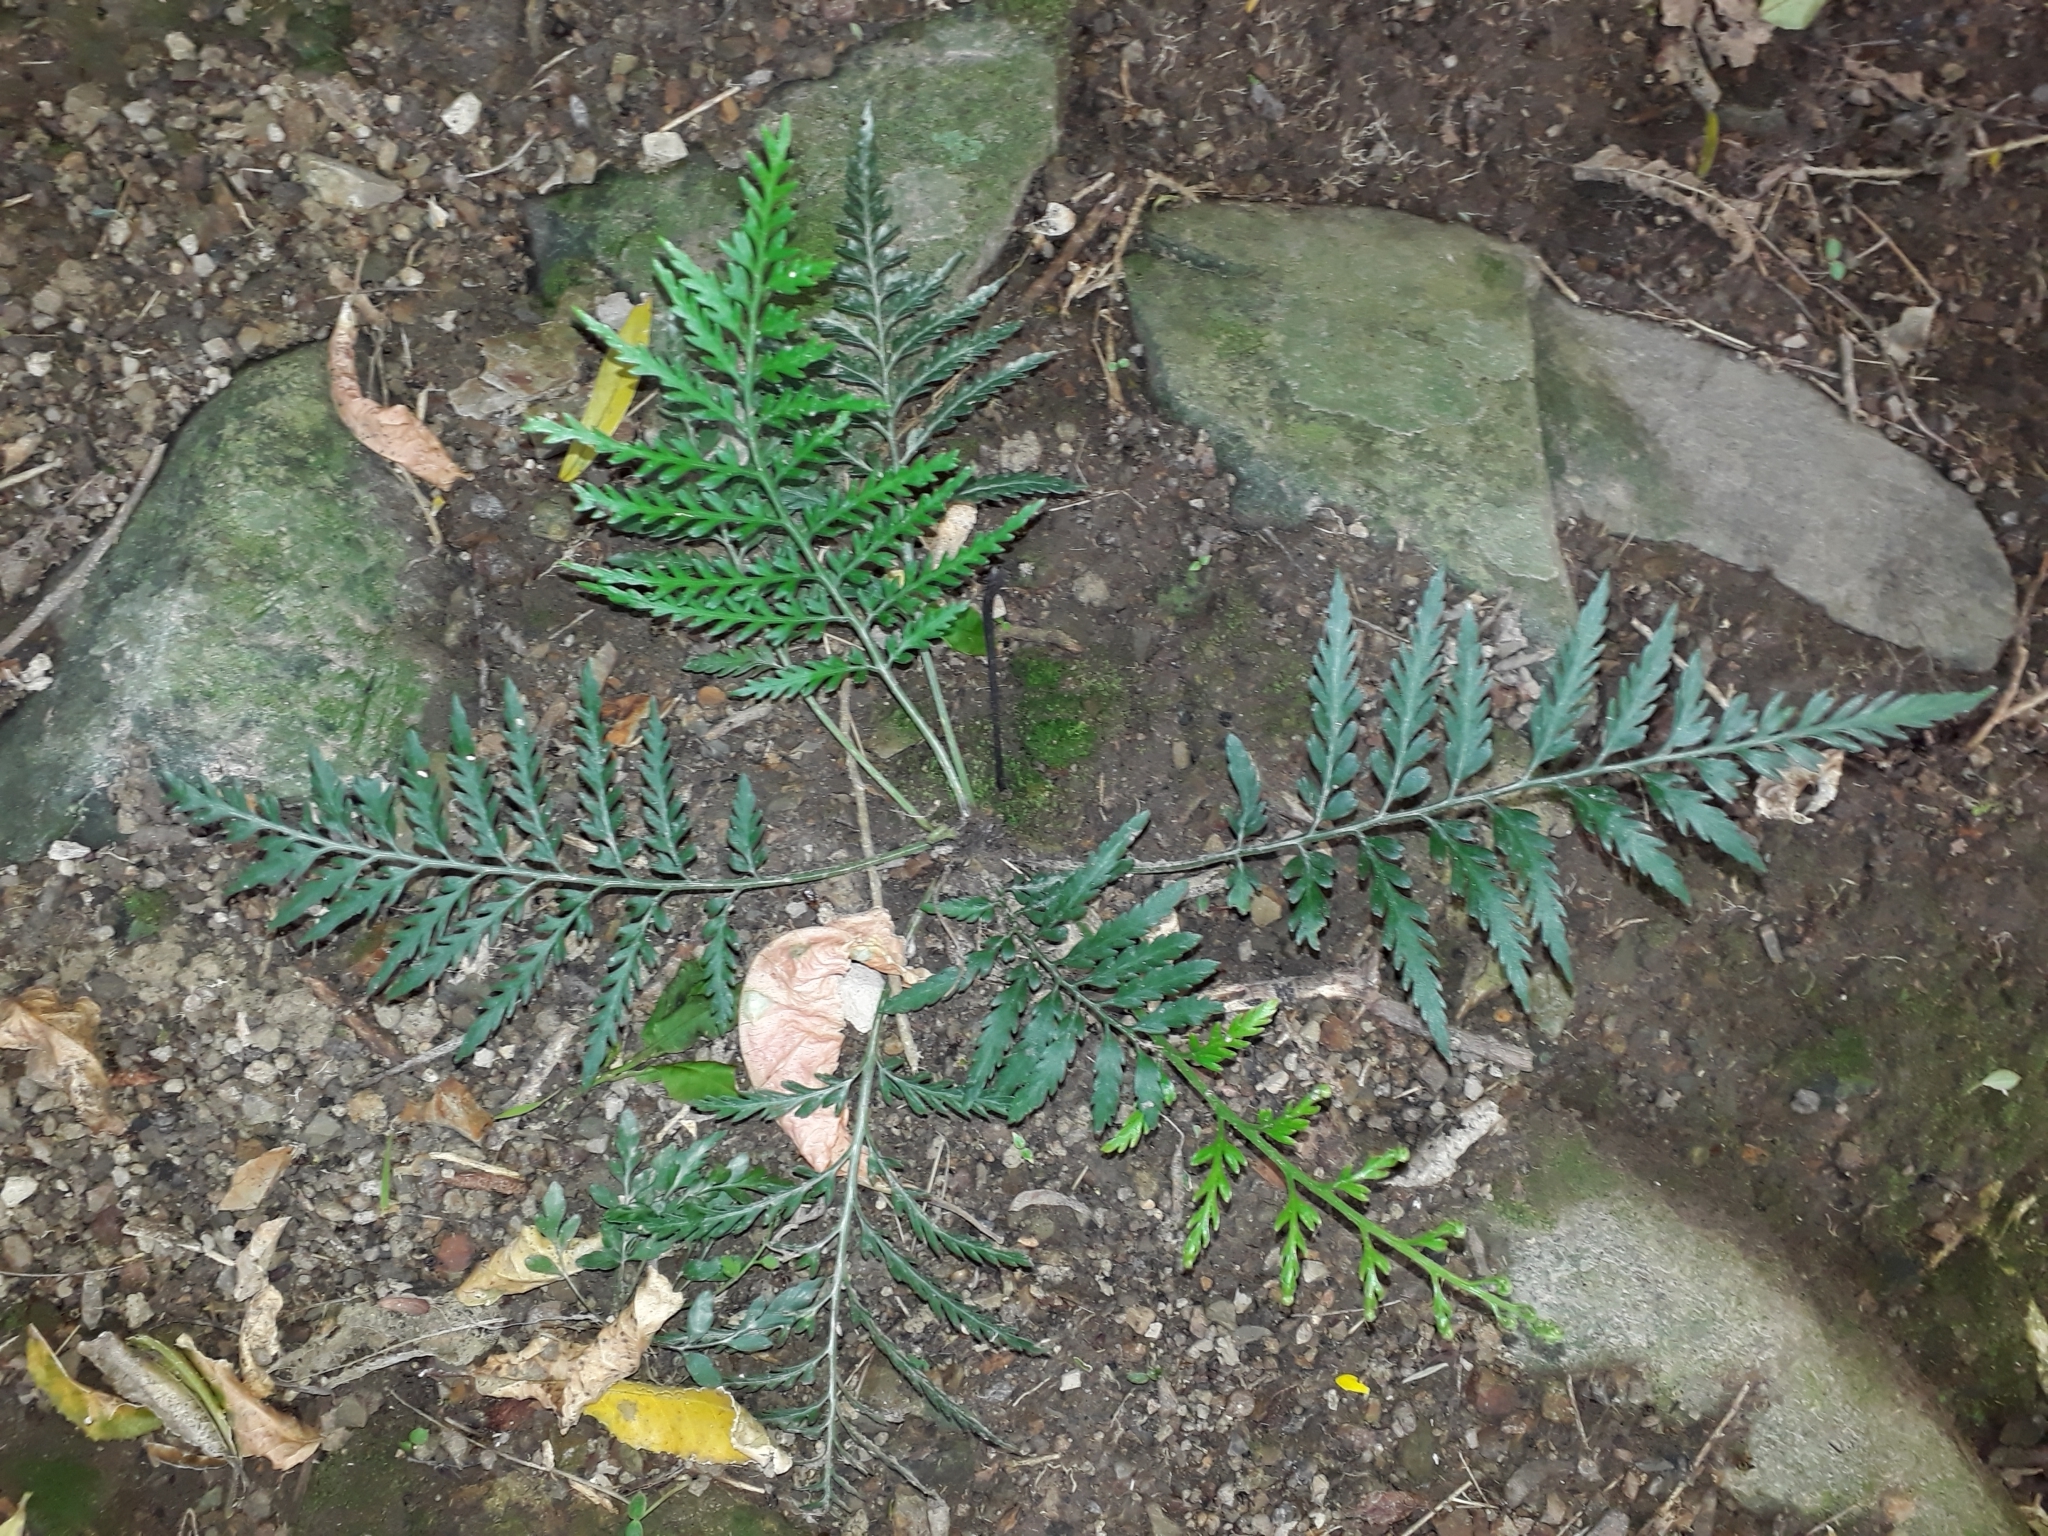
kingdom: Plantae
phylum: Tracheophyta
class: Polypodiopsida
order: Polypodiales
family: Aspleniaceae
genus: Asplenium
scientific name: Asplenium appendiculatum
